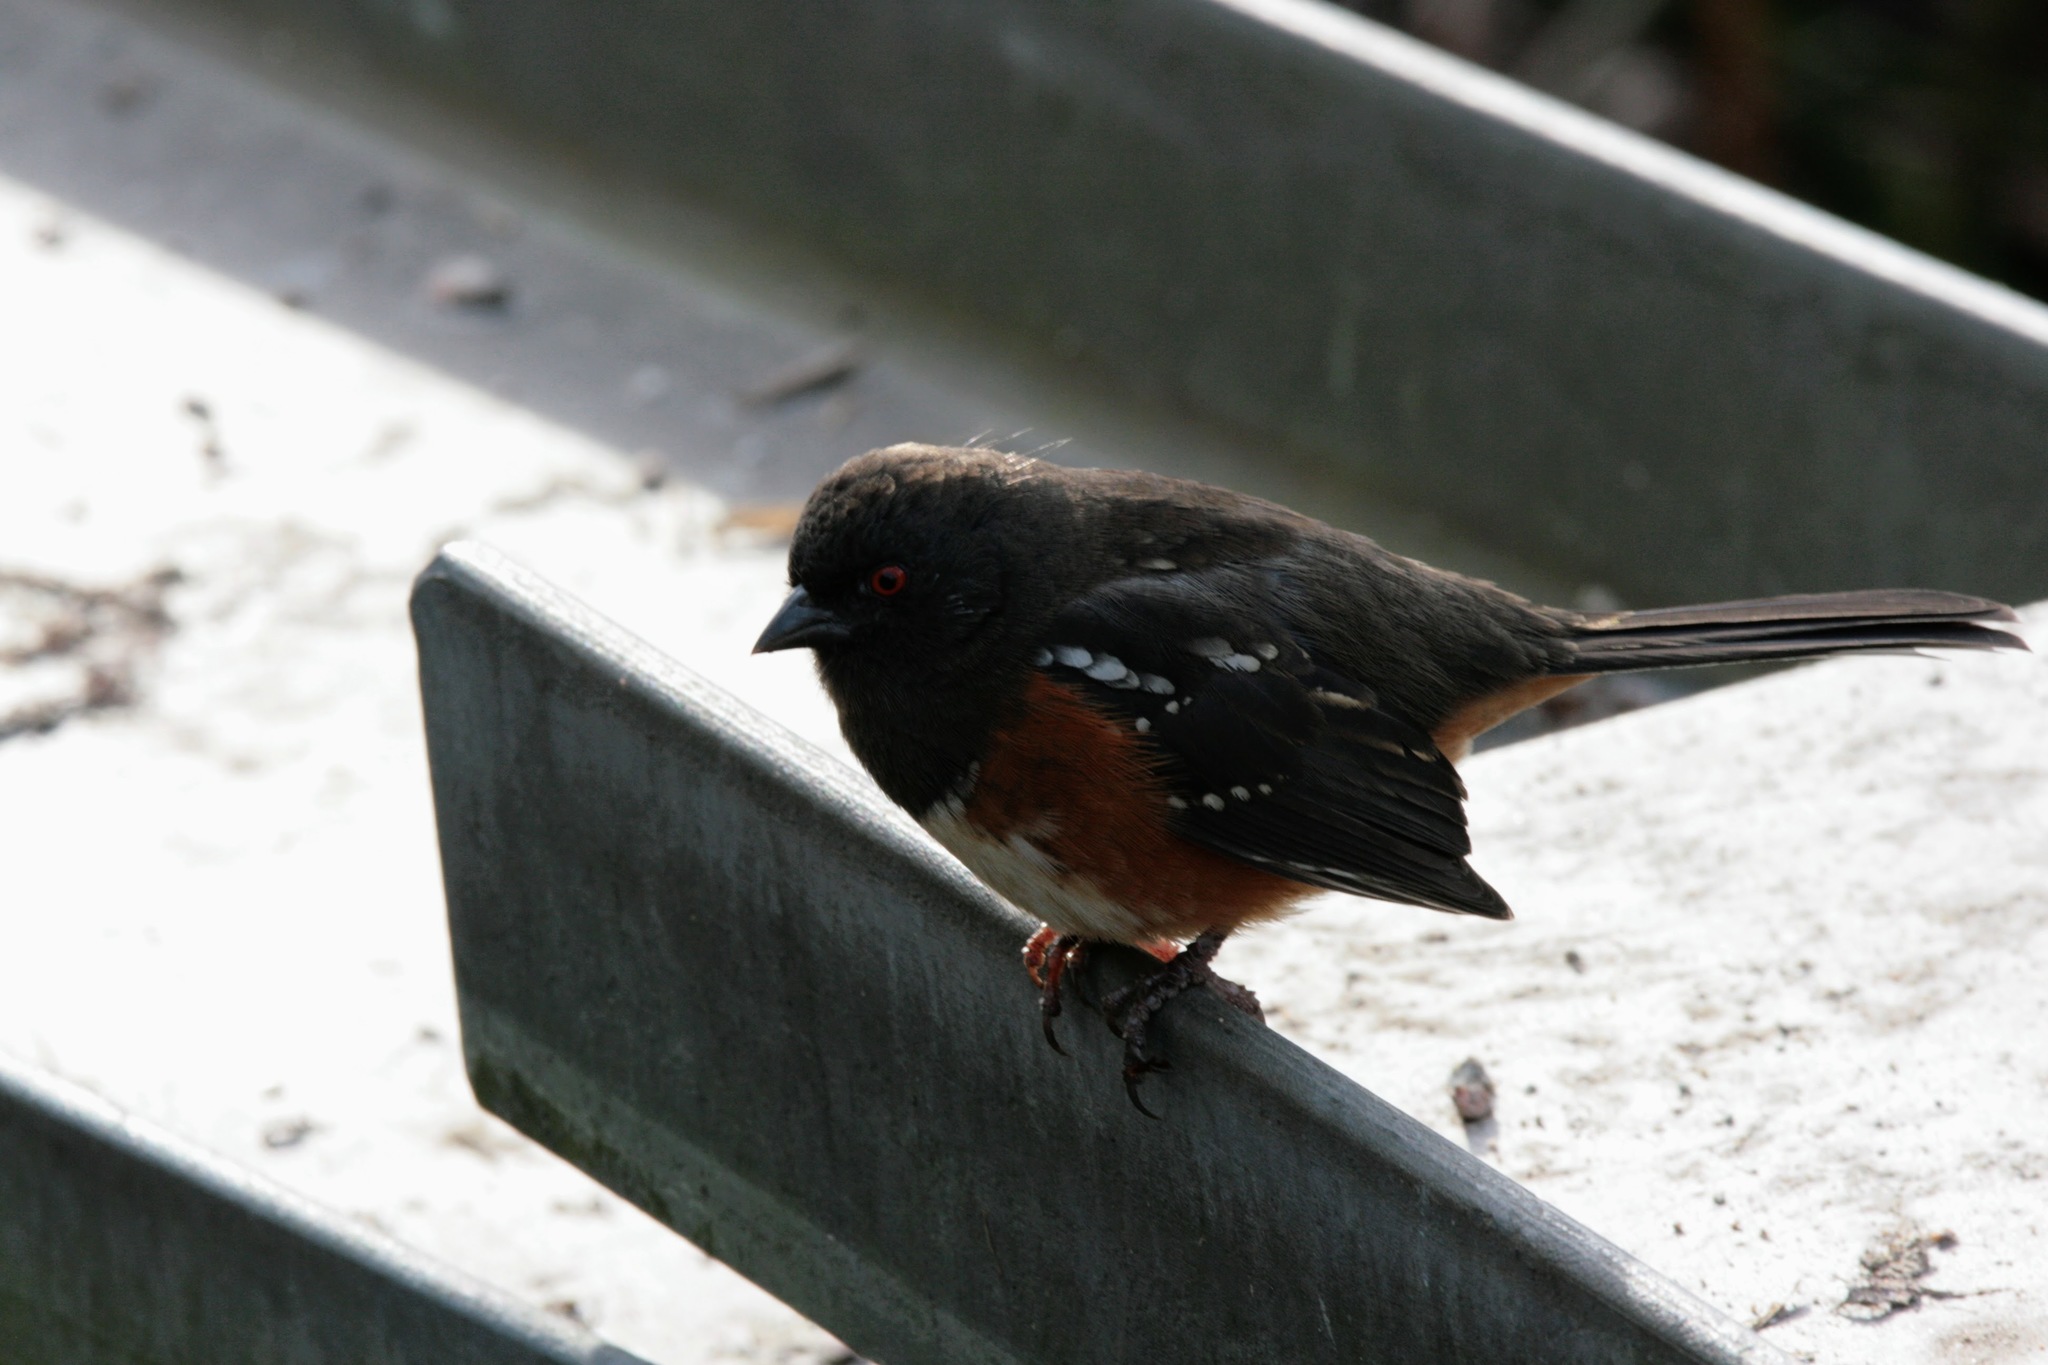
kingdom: Animalia
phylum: Chordata
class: Aves
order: Passeriformes
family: Passerellidae
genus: Pipilo
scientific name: Pipilo maculatus
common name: Spotted towhee
